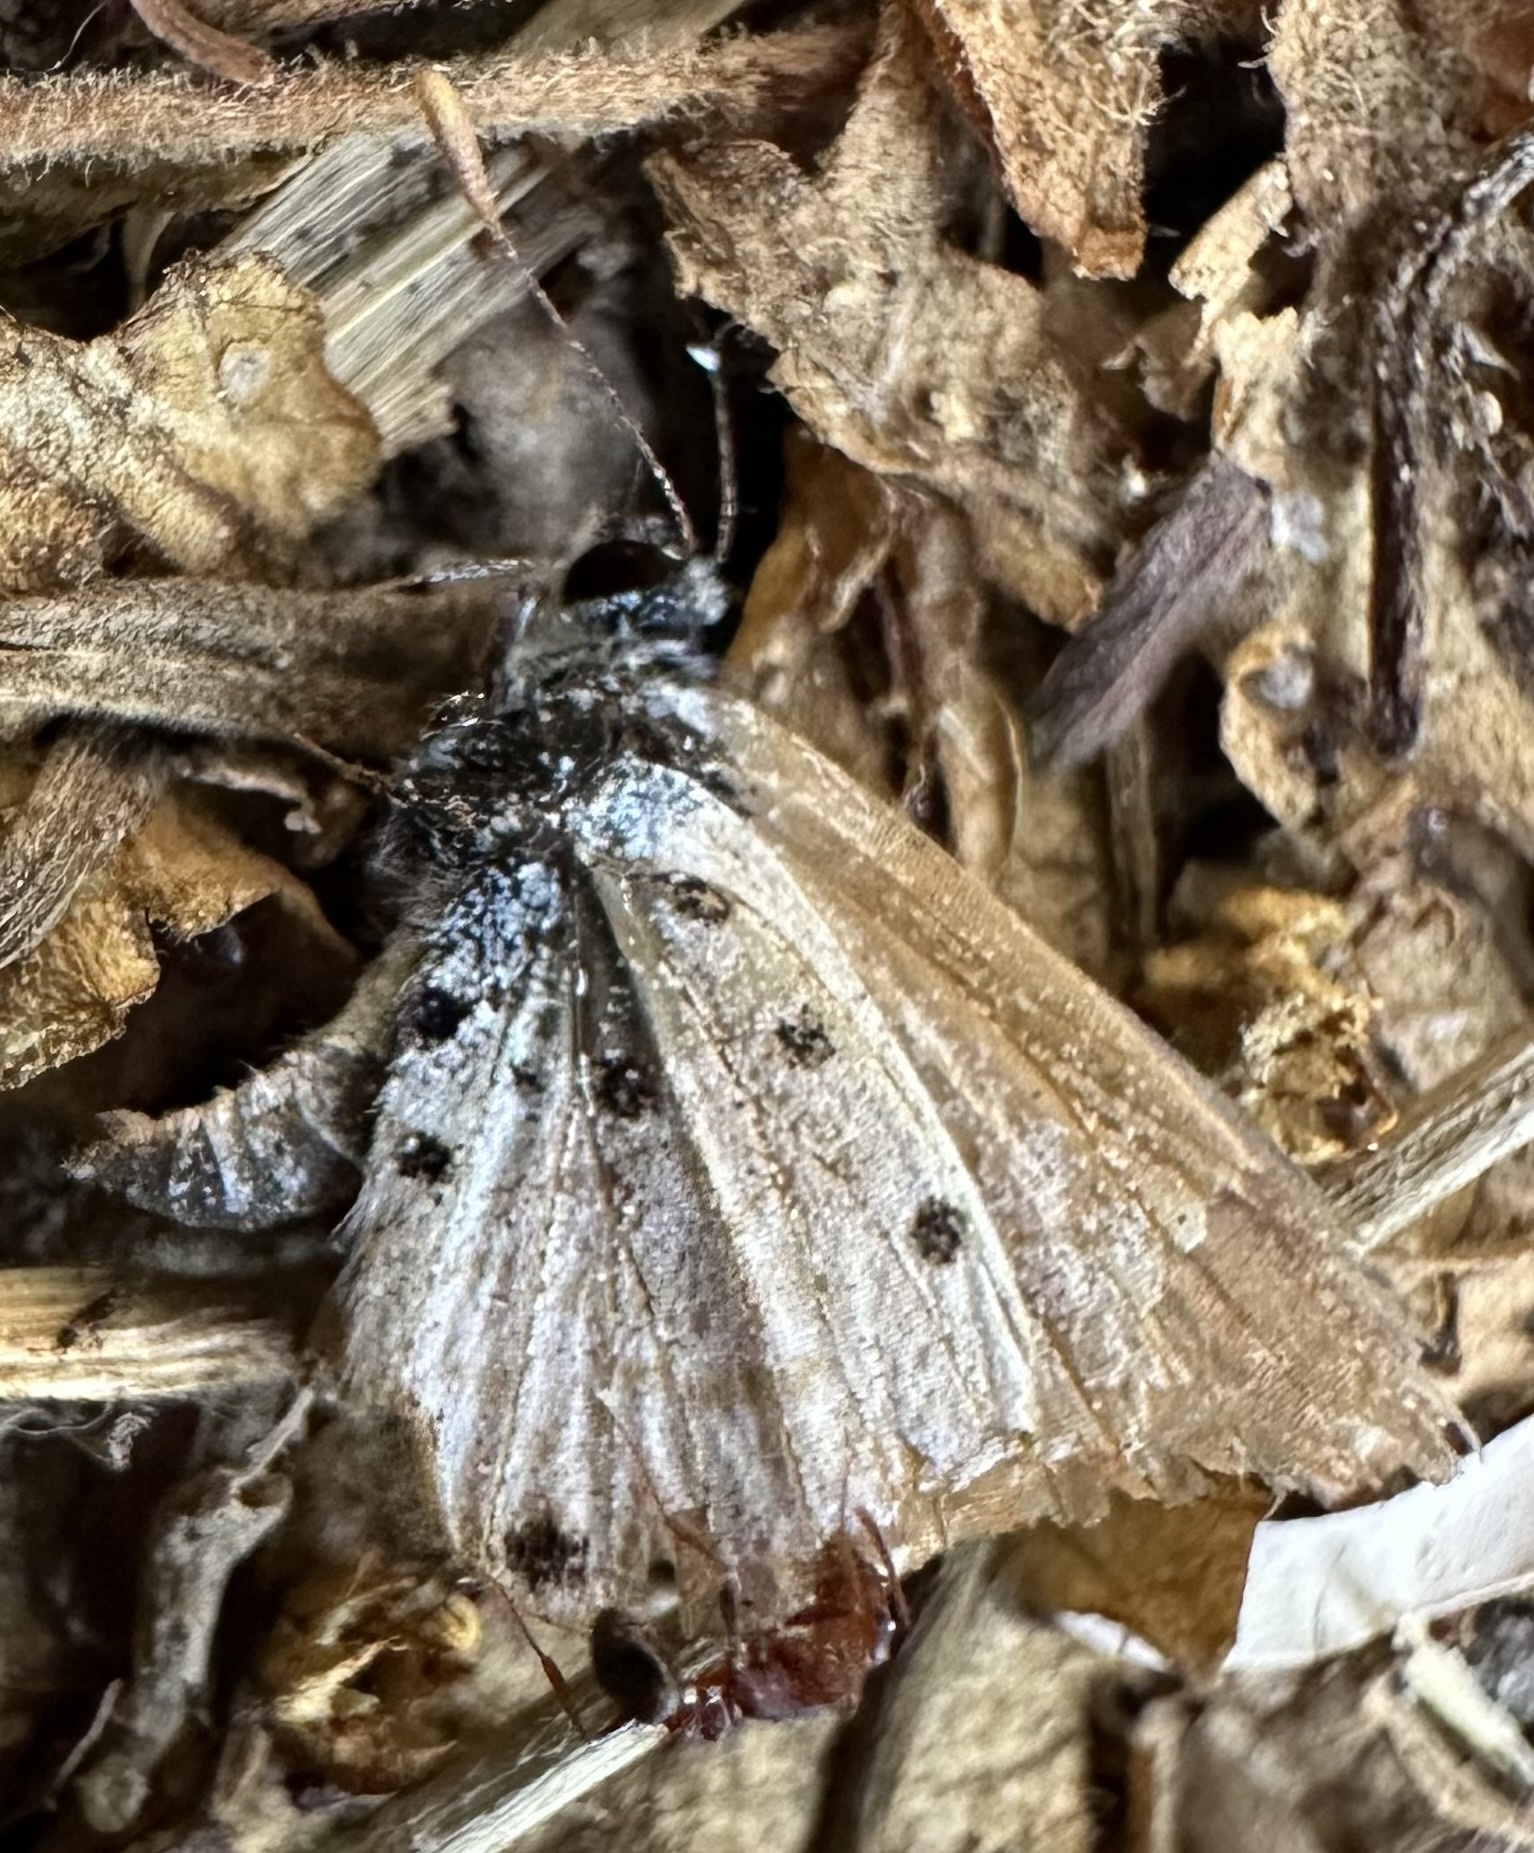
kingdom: Animalia
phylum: Arthropoda
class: Insecta
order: Lepidoptera
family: Lycaenidae
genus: Anthene
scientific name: Anthene amarah
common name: Black-striped hairtail
